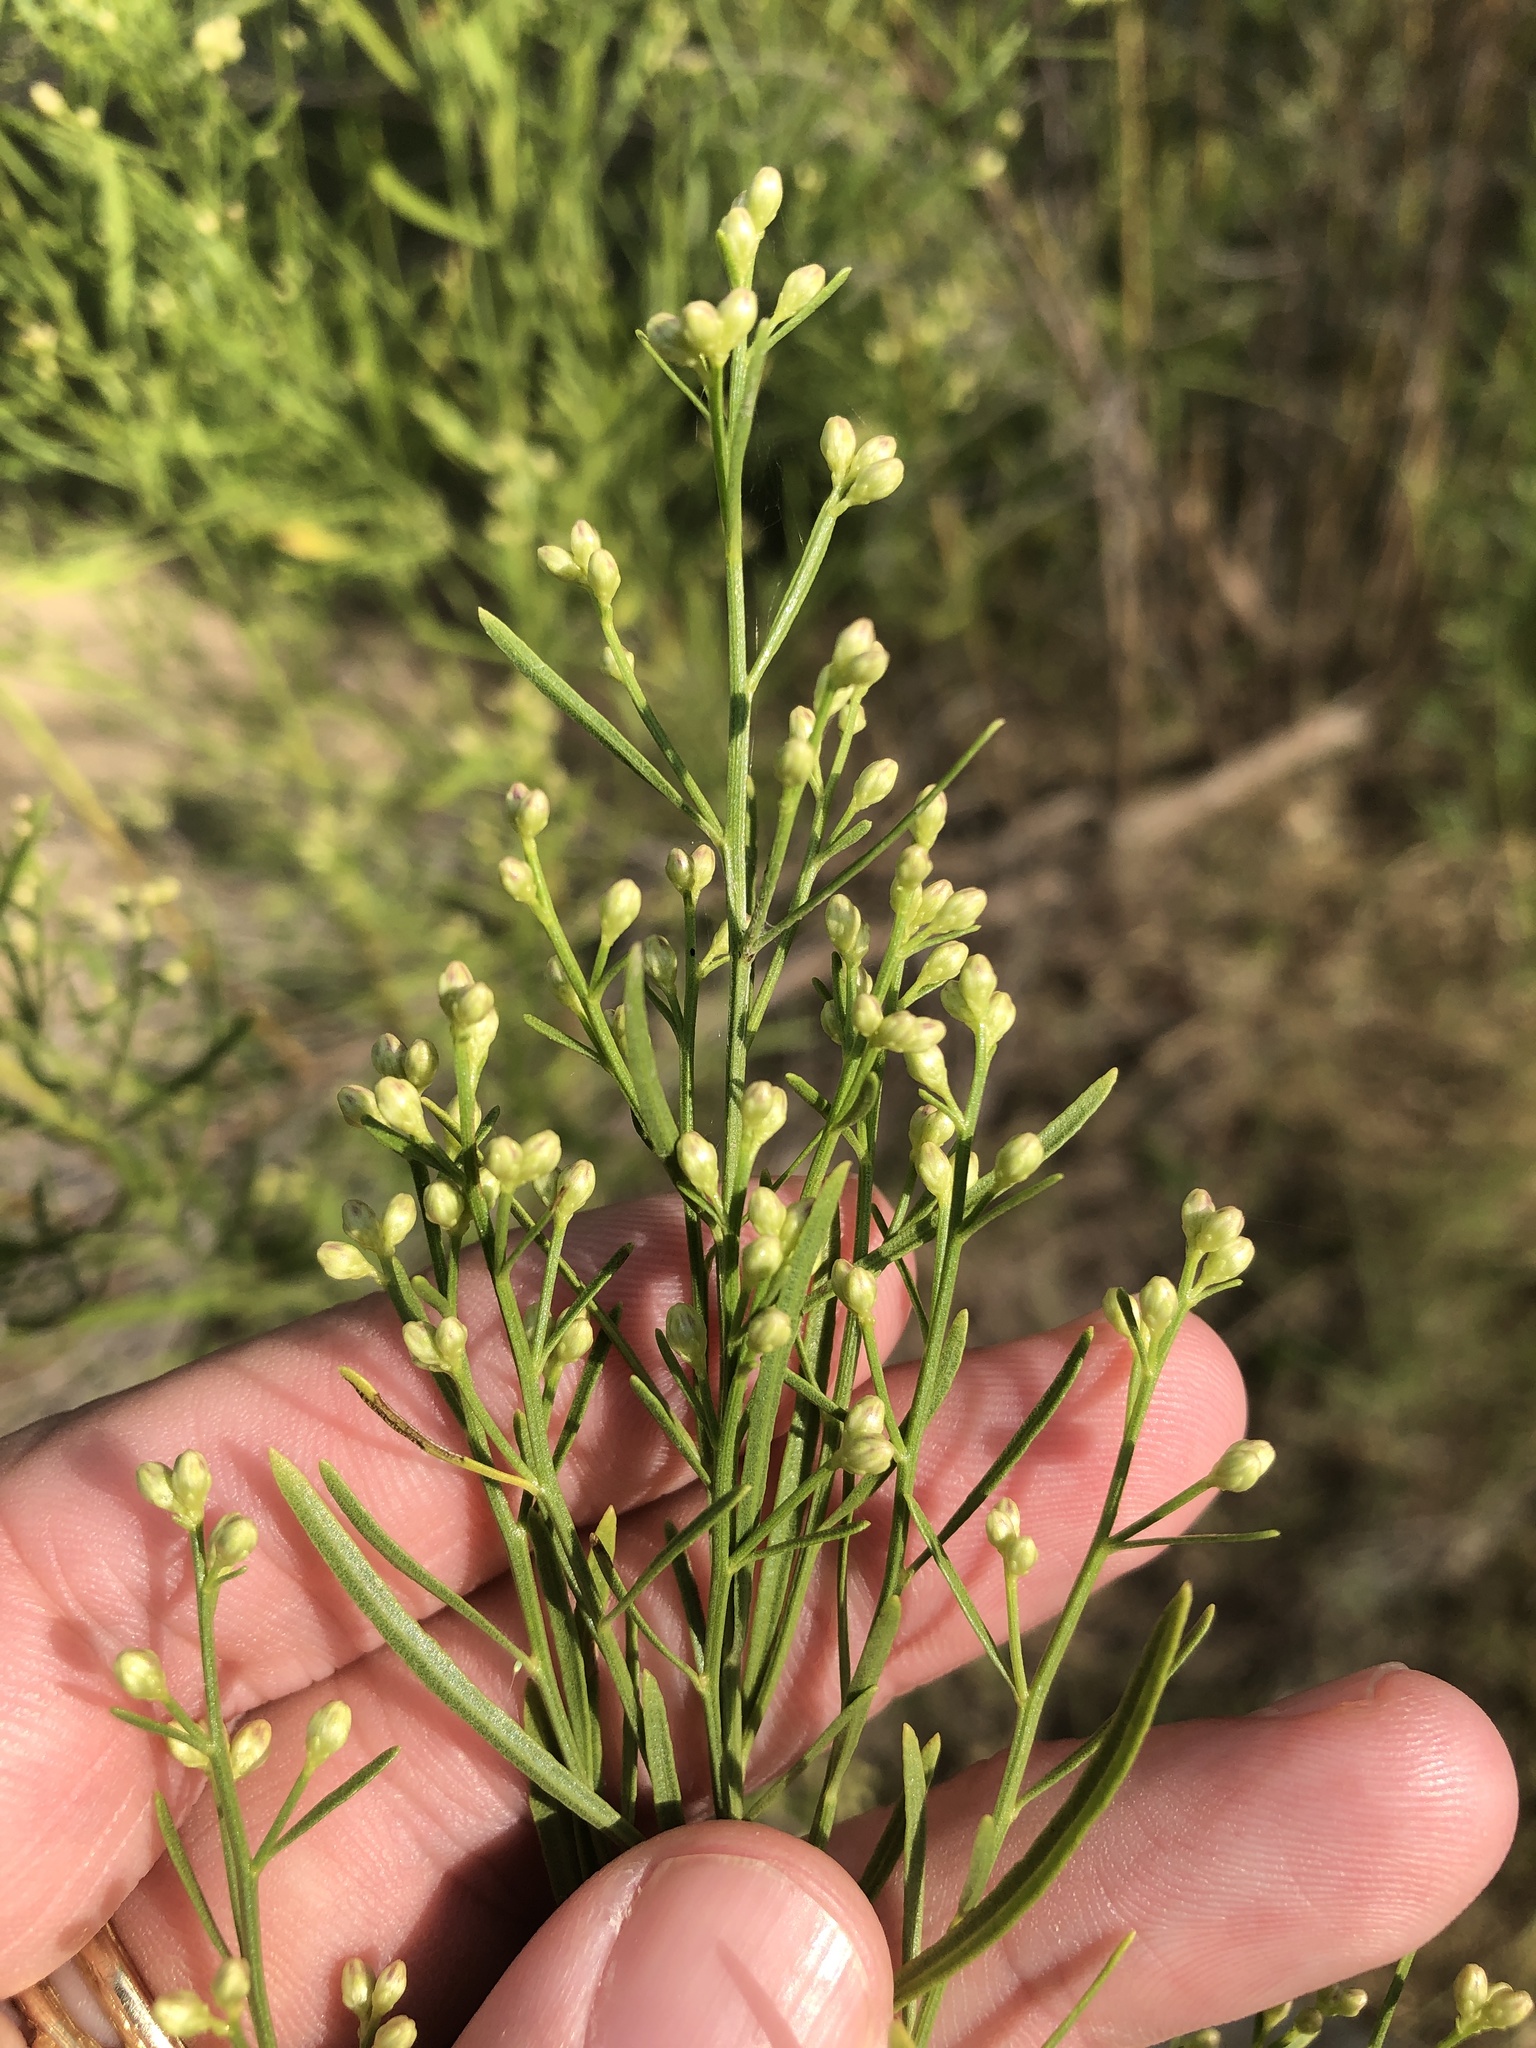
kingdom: Plantae
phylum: Tracheophyta
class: Magnoliopsida
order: Asterales
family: Asteraceae
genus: Baccharis
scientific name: Baccharis neglecta
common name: Roosevelt-weed
